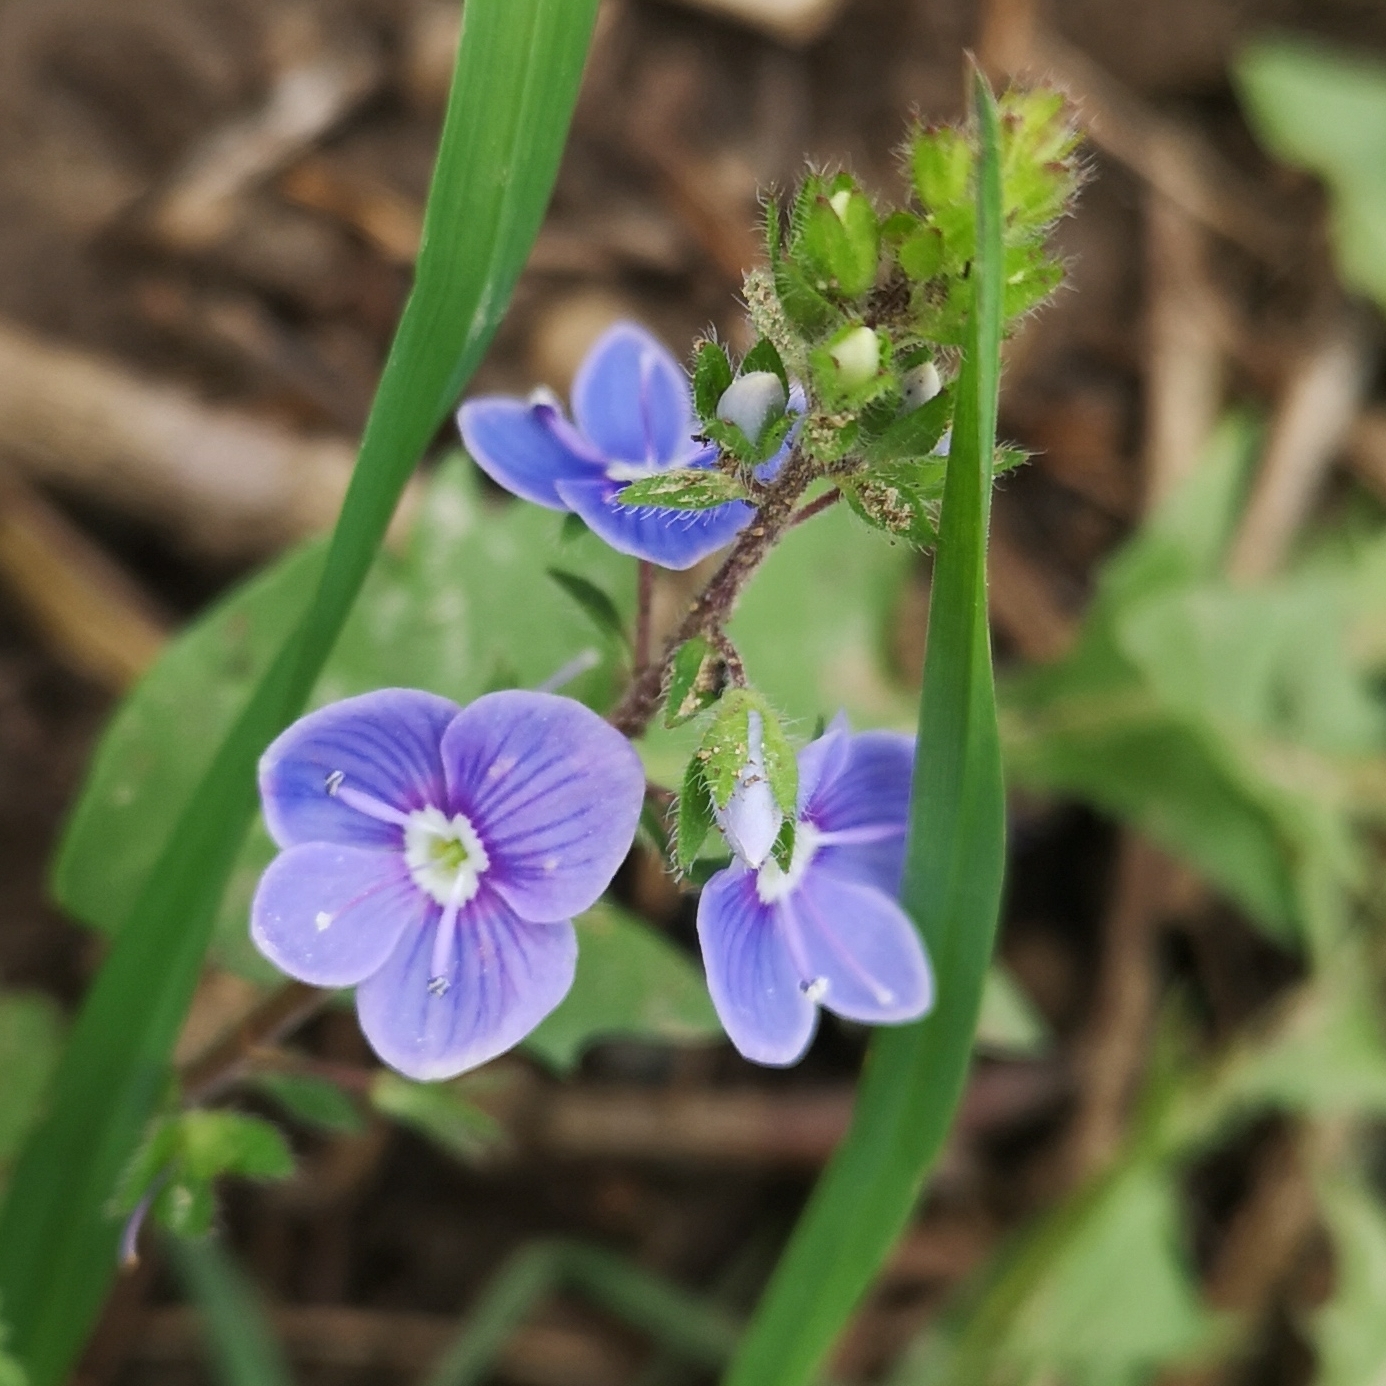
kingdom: Plantae
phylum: Tracheophyta
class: Magnoliopsida
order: Lamiales
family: Plantaginaceae
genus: Veronica
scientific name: Veronica chamaedrys
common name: Germander speedwell
